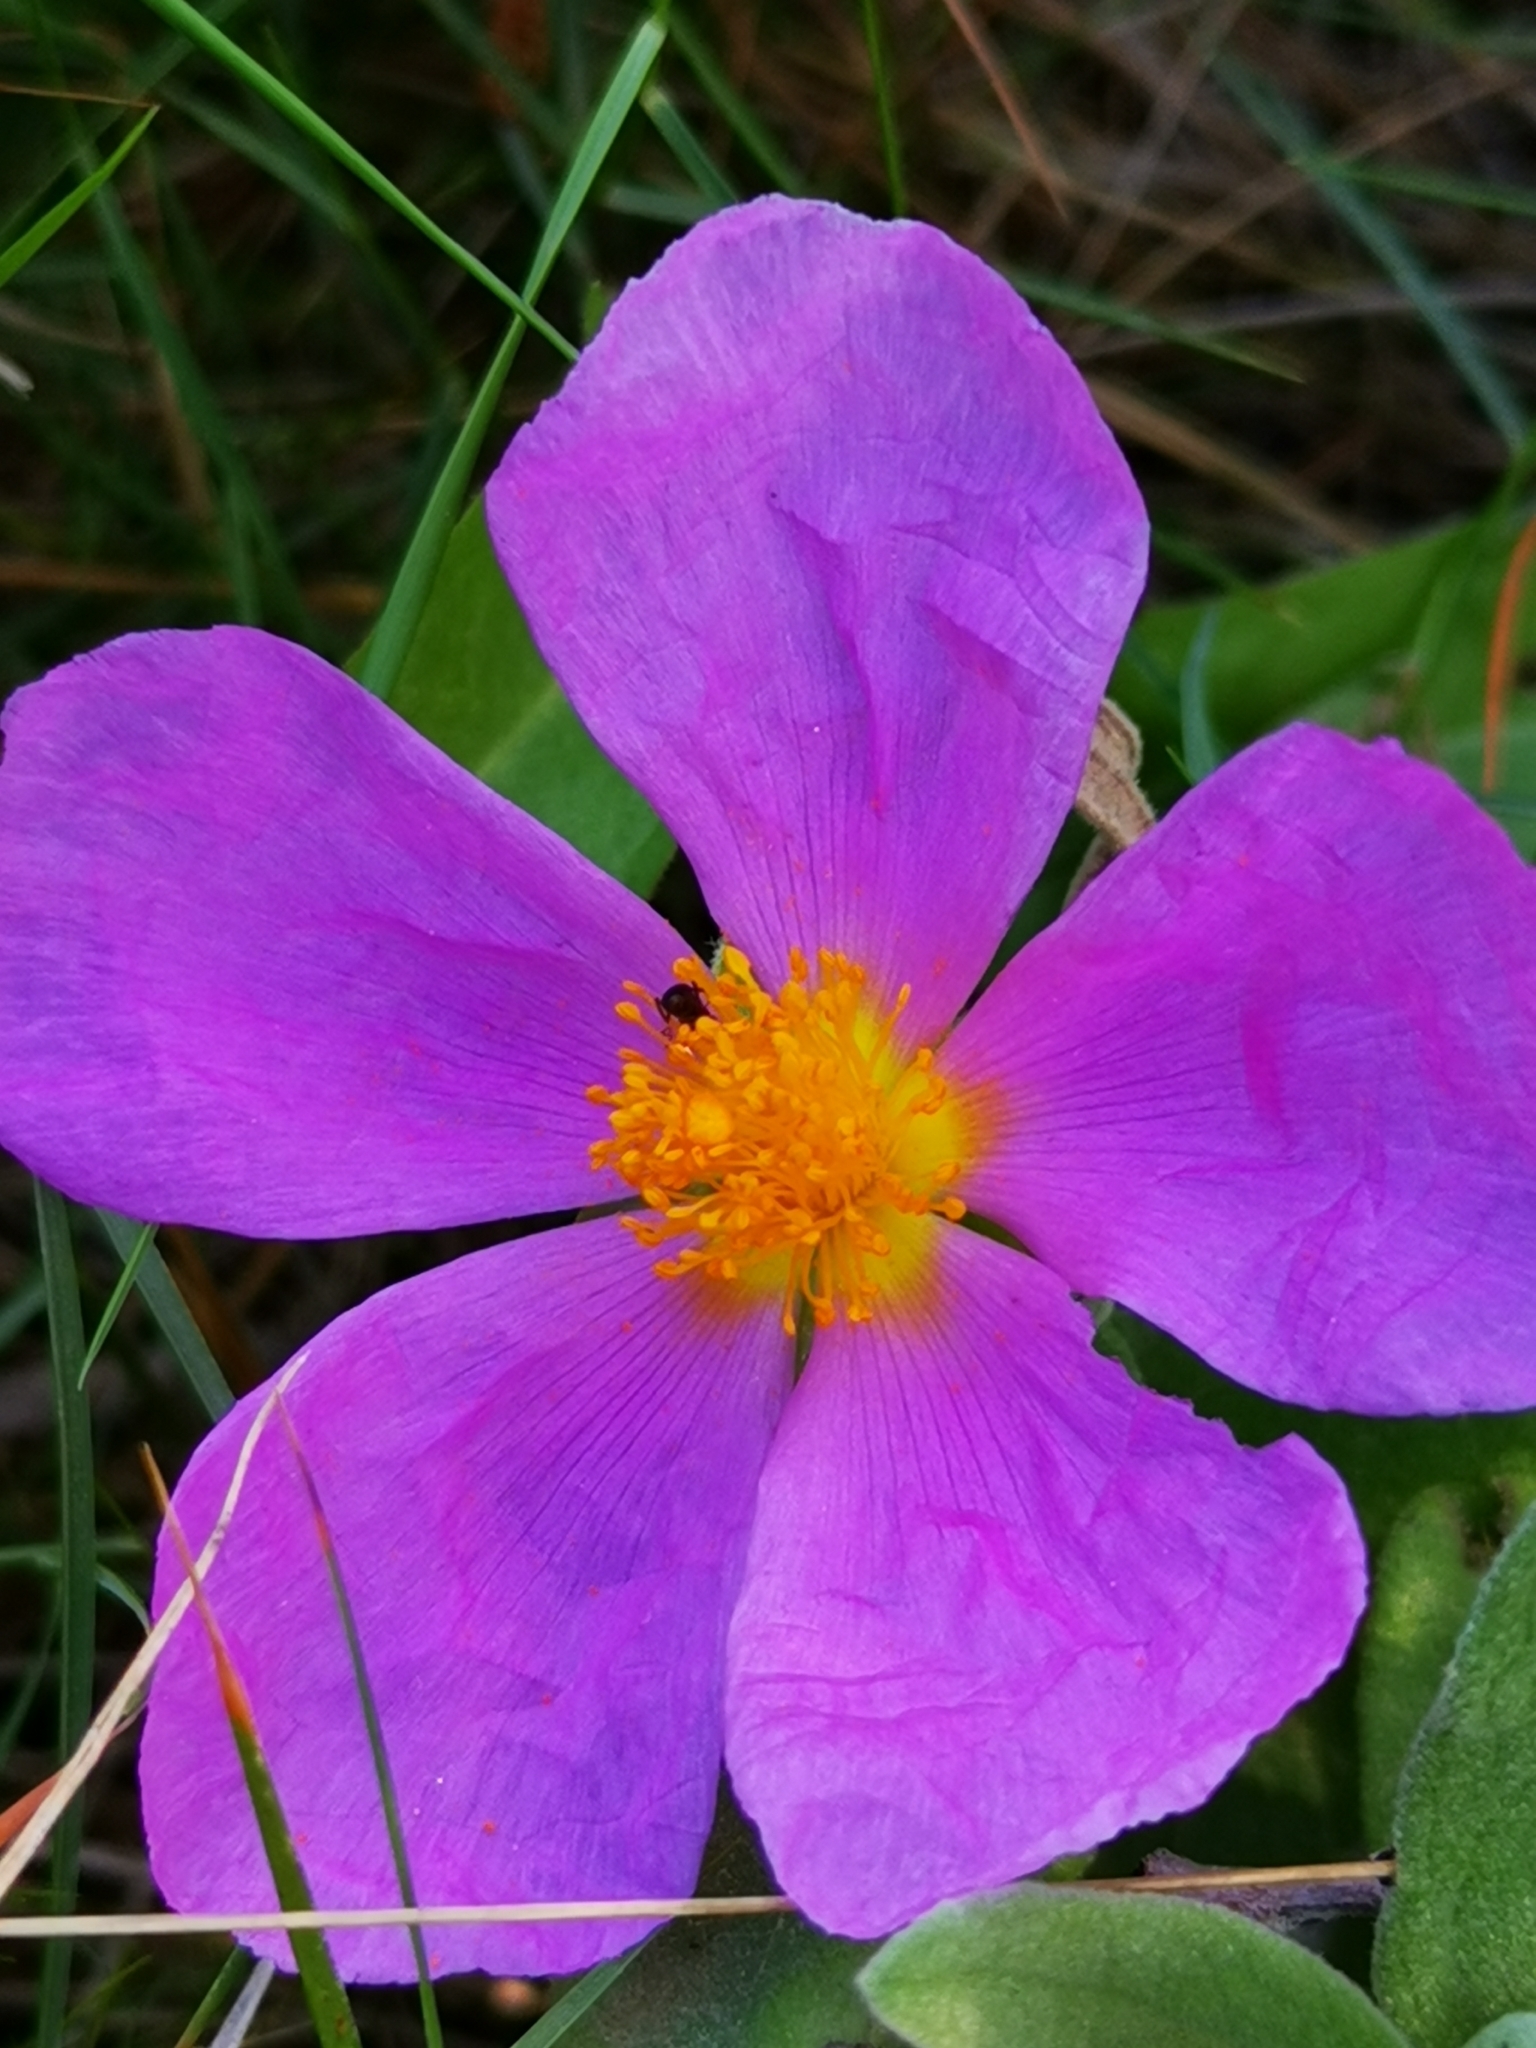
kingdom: Plantae
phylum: Tracheophyta
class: Magnoliopsida
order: Malvales
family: Cistaceae
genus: Cistus
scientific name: Cistus albidus
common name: White-leaf rock-rose
